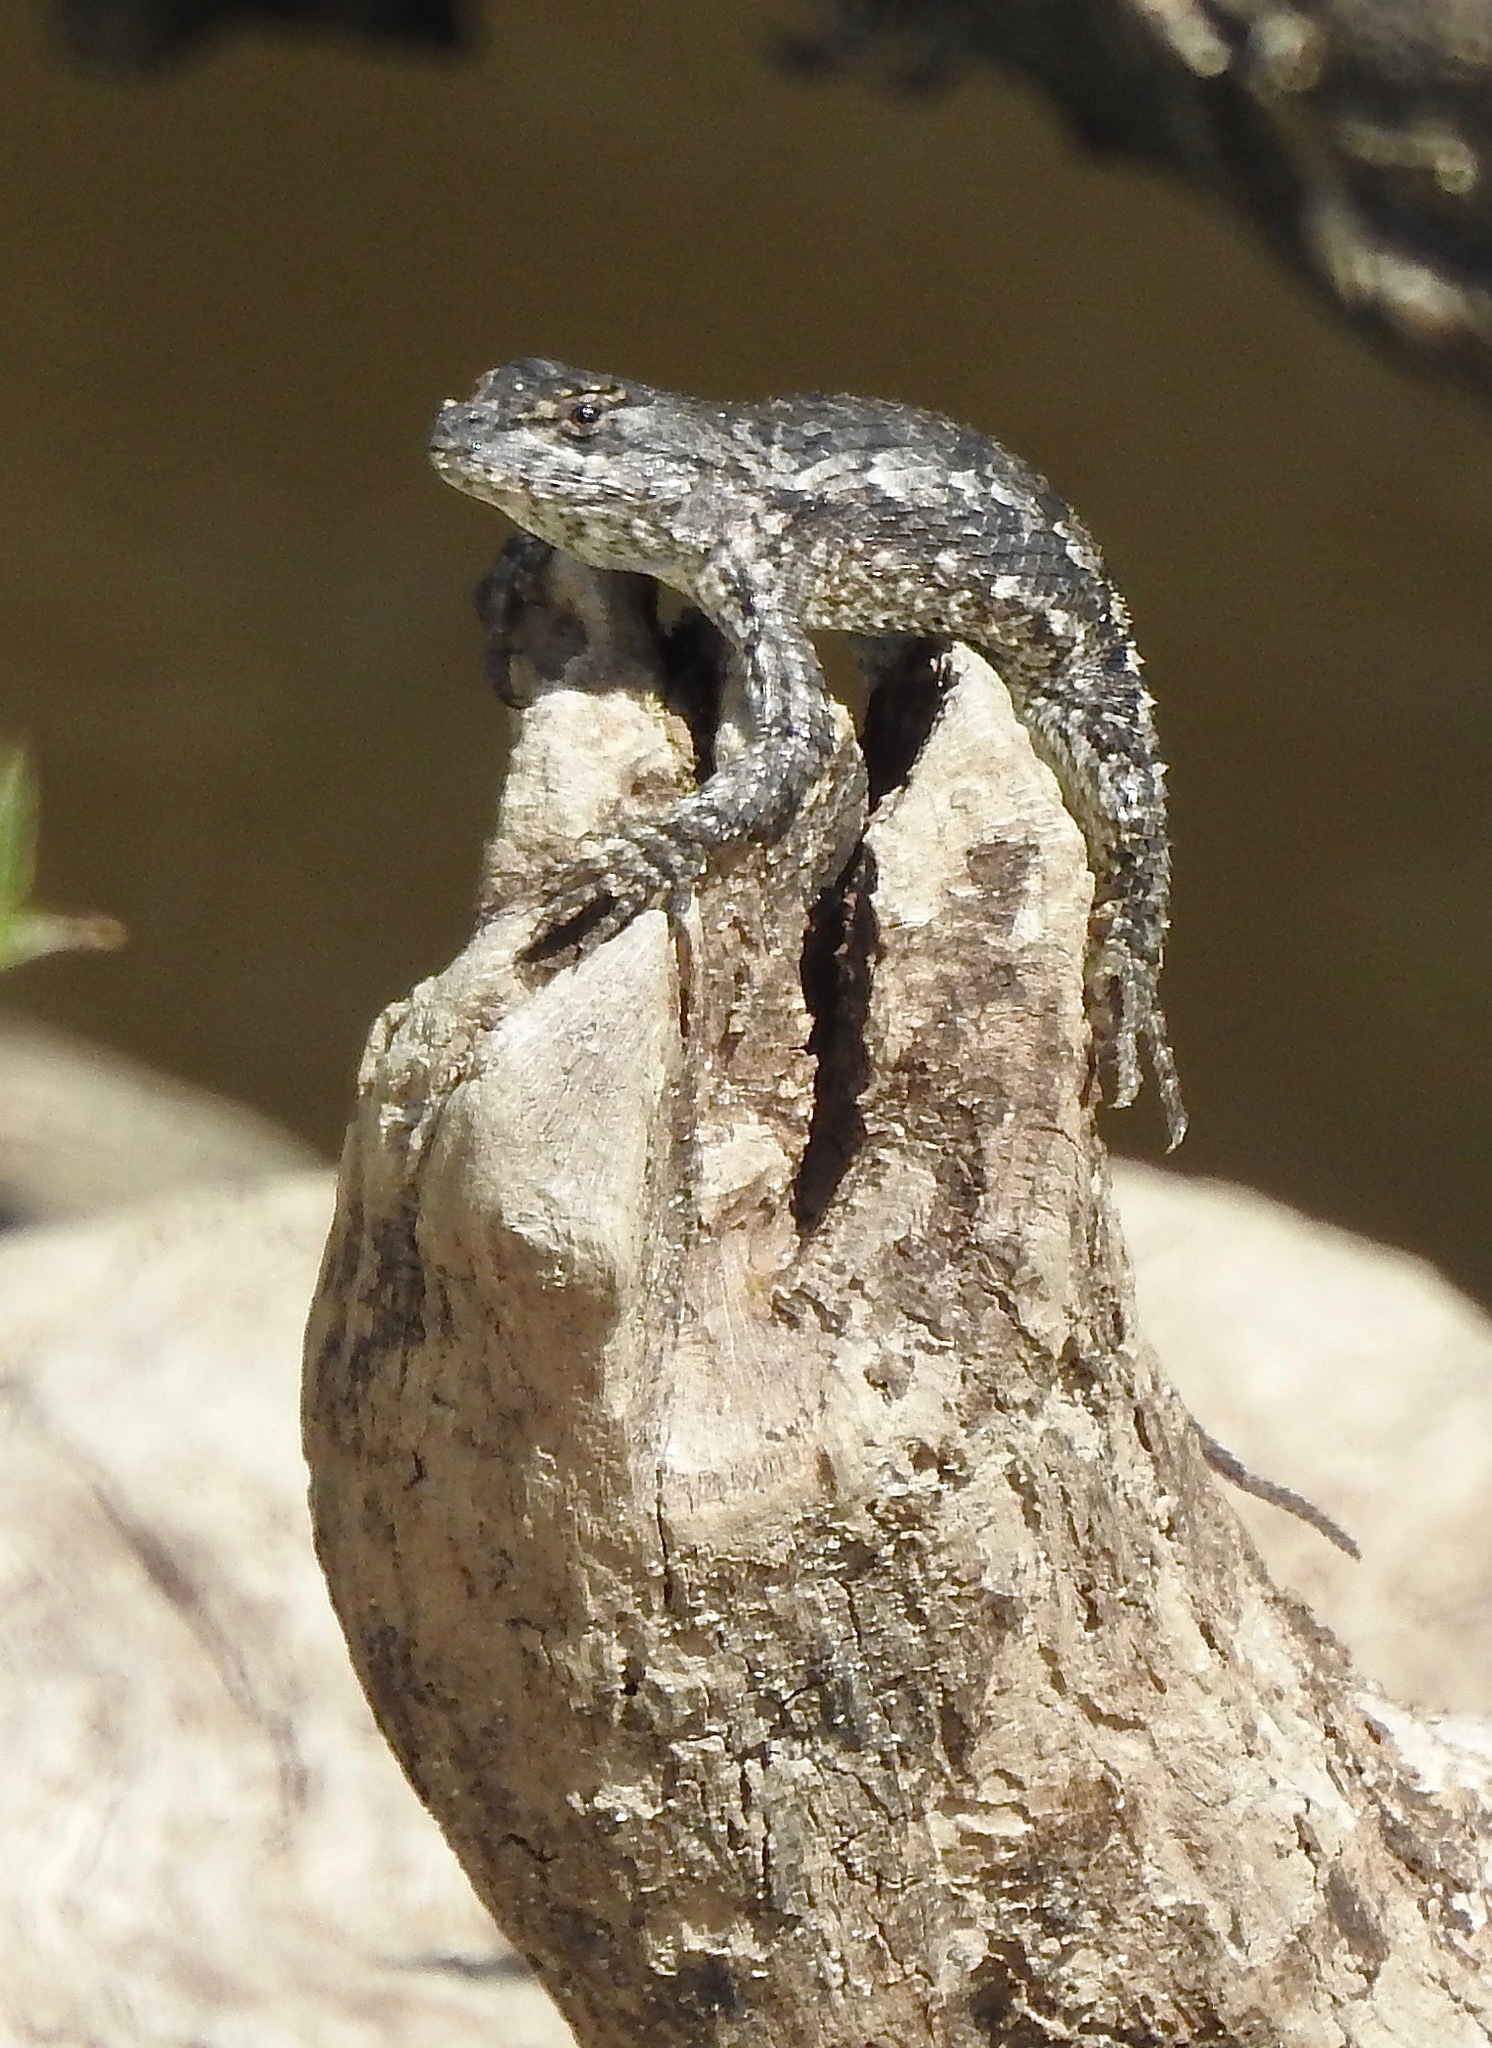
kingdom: Animalia
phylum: Chordata
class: Squamata
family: Phrynosomatidae
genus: Sceloporus
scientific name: Sceloporus consobrinus
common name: Southern prairie lizard
